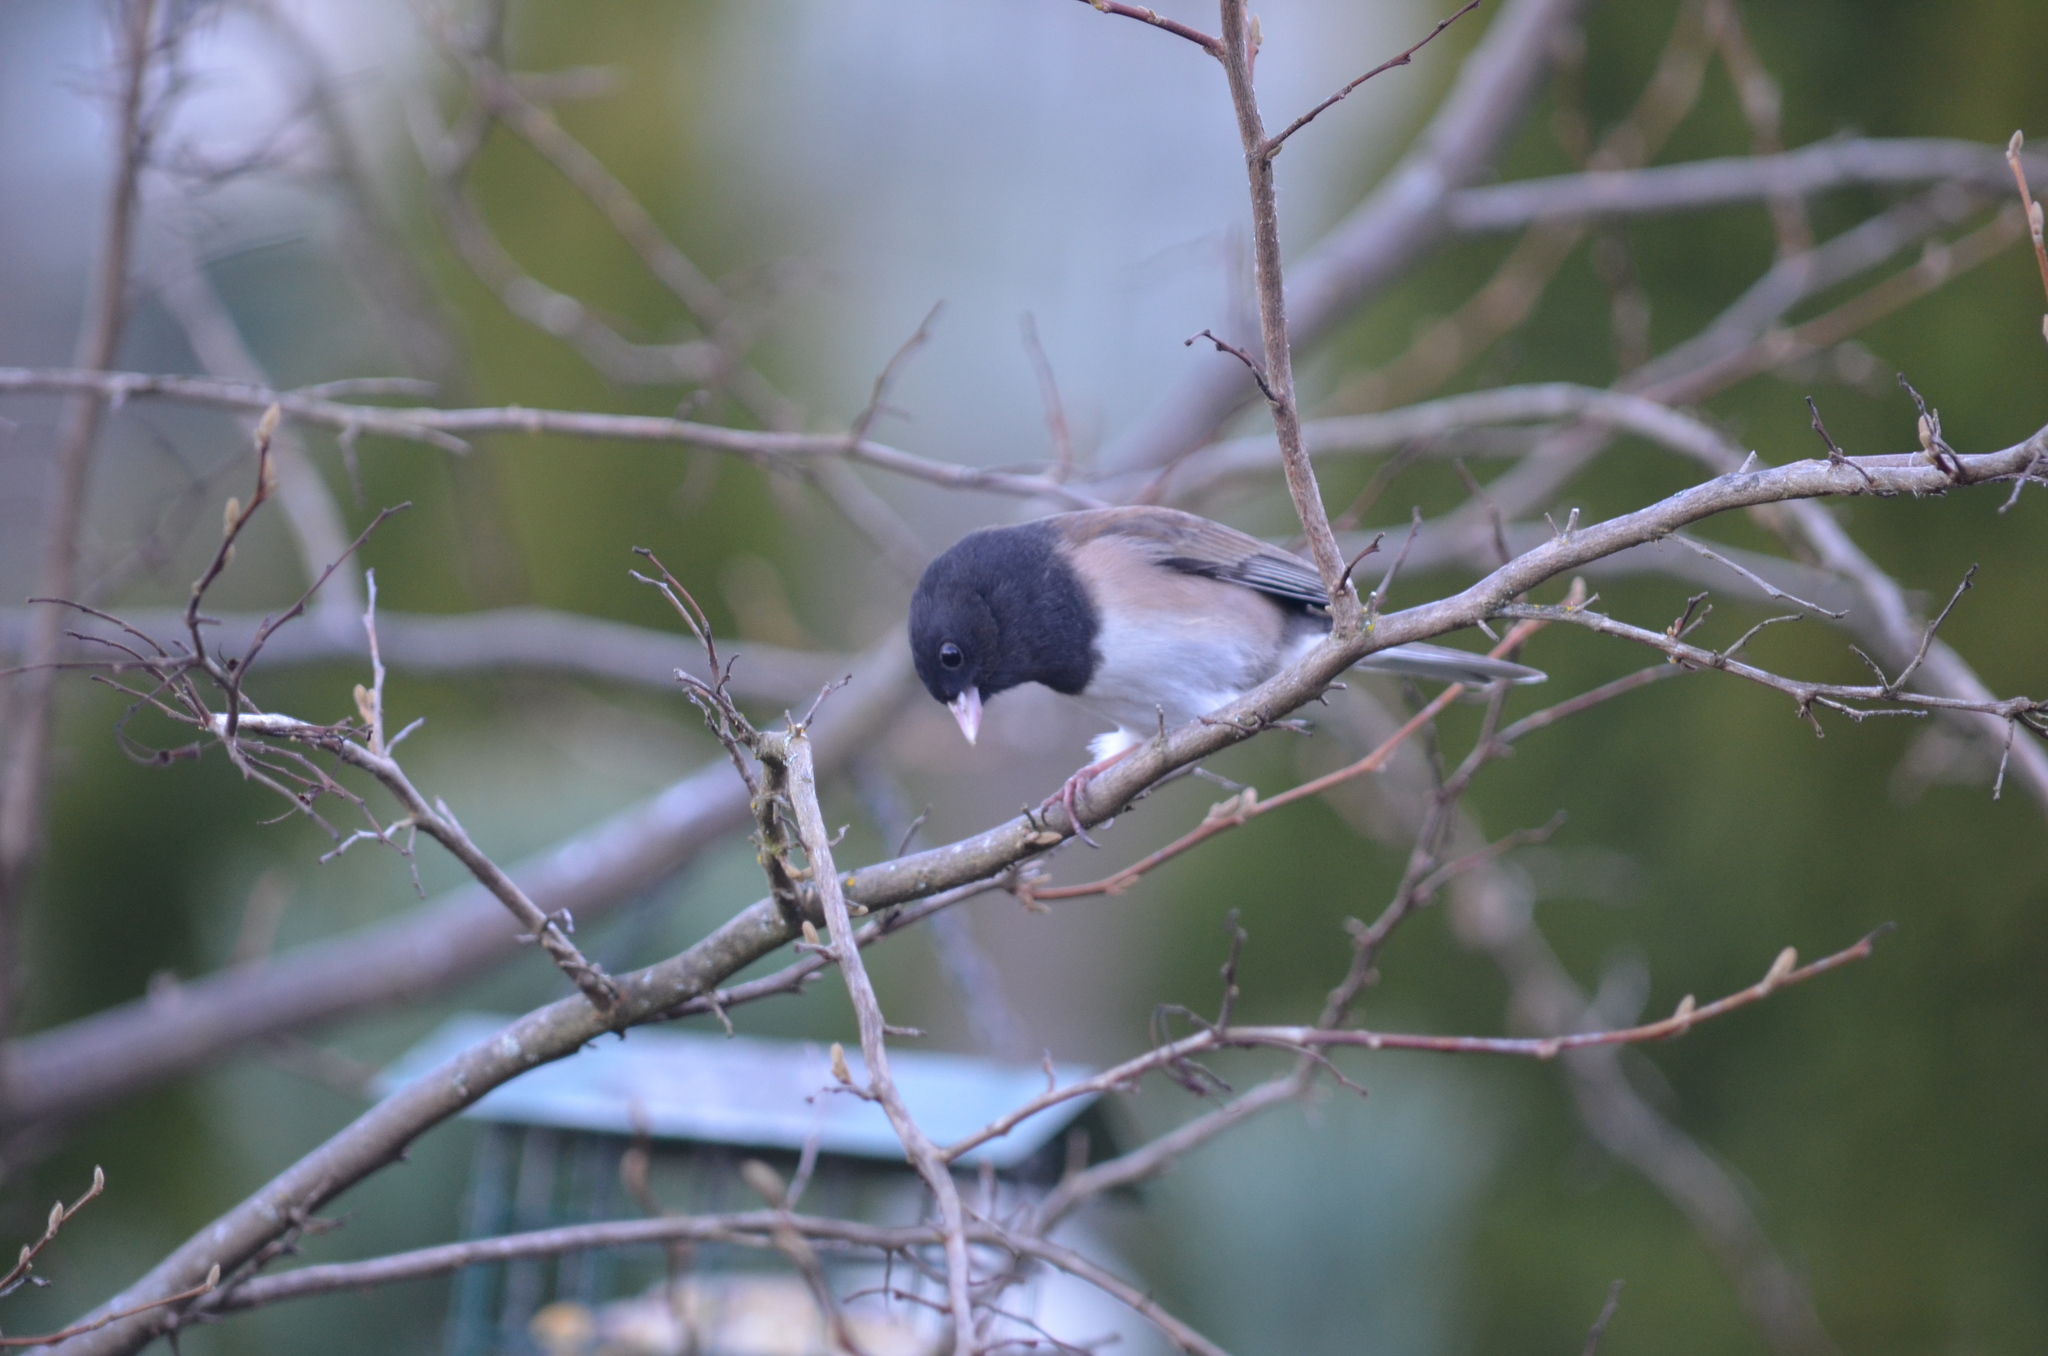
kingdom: Animalia
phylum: Chordata
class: Aves
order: Passeriformes
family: Passerellidae
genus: Junco
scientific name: Junco hyemalis
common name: Dark-eyed junco
